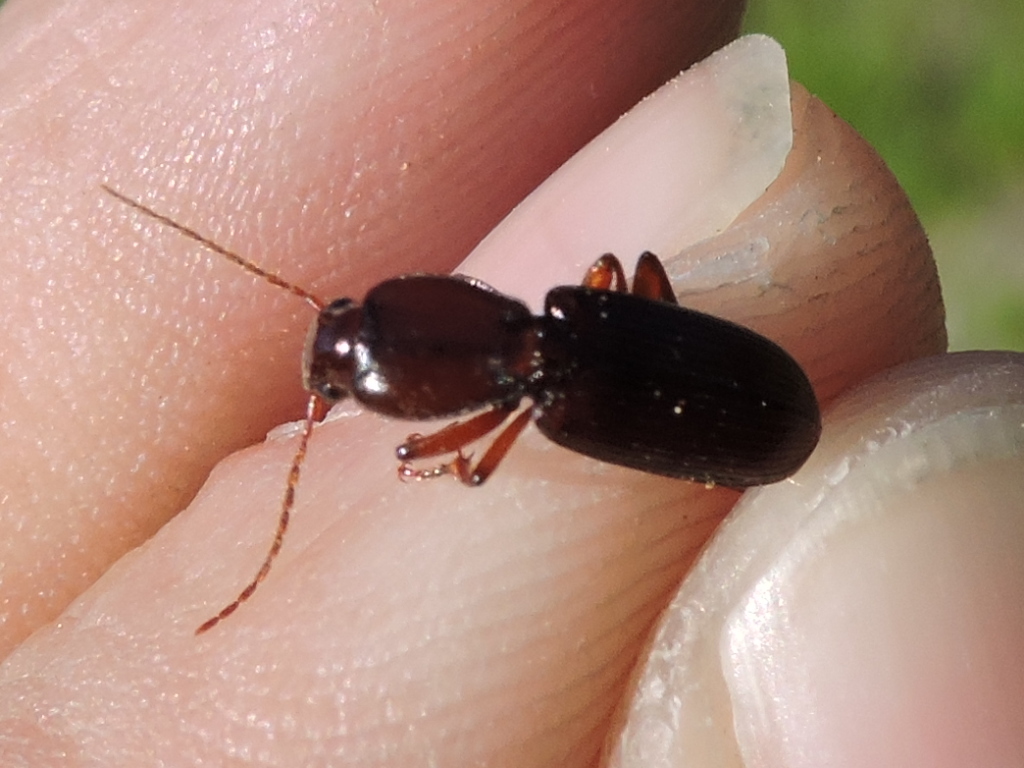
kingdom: Animalia
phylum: Arthropoda
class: Insecta
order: Coleoptera
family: Carabidae
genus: Stenomorphus
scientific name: Stenomorphus californicus
